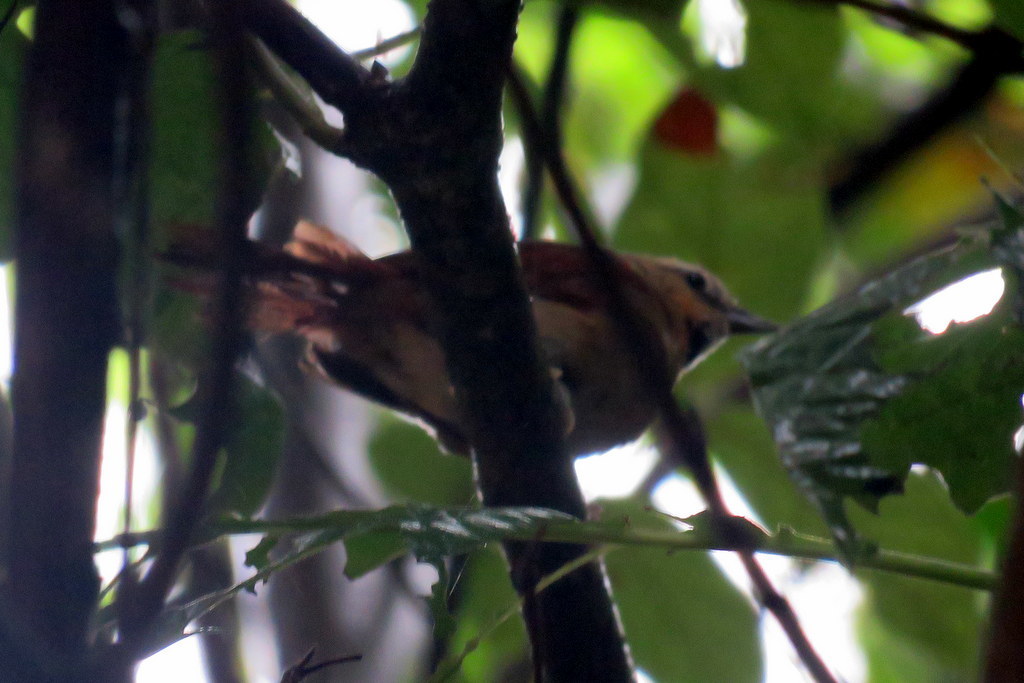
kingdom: Animalia
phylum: Chordata
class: Aves
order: Passeriformes
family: Furnariidae
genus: Synallaxis
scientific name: Synallaxis scutata
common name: Ochre-cheeked spinetail
